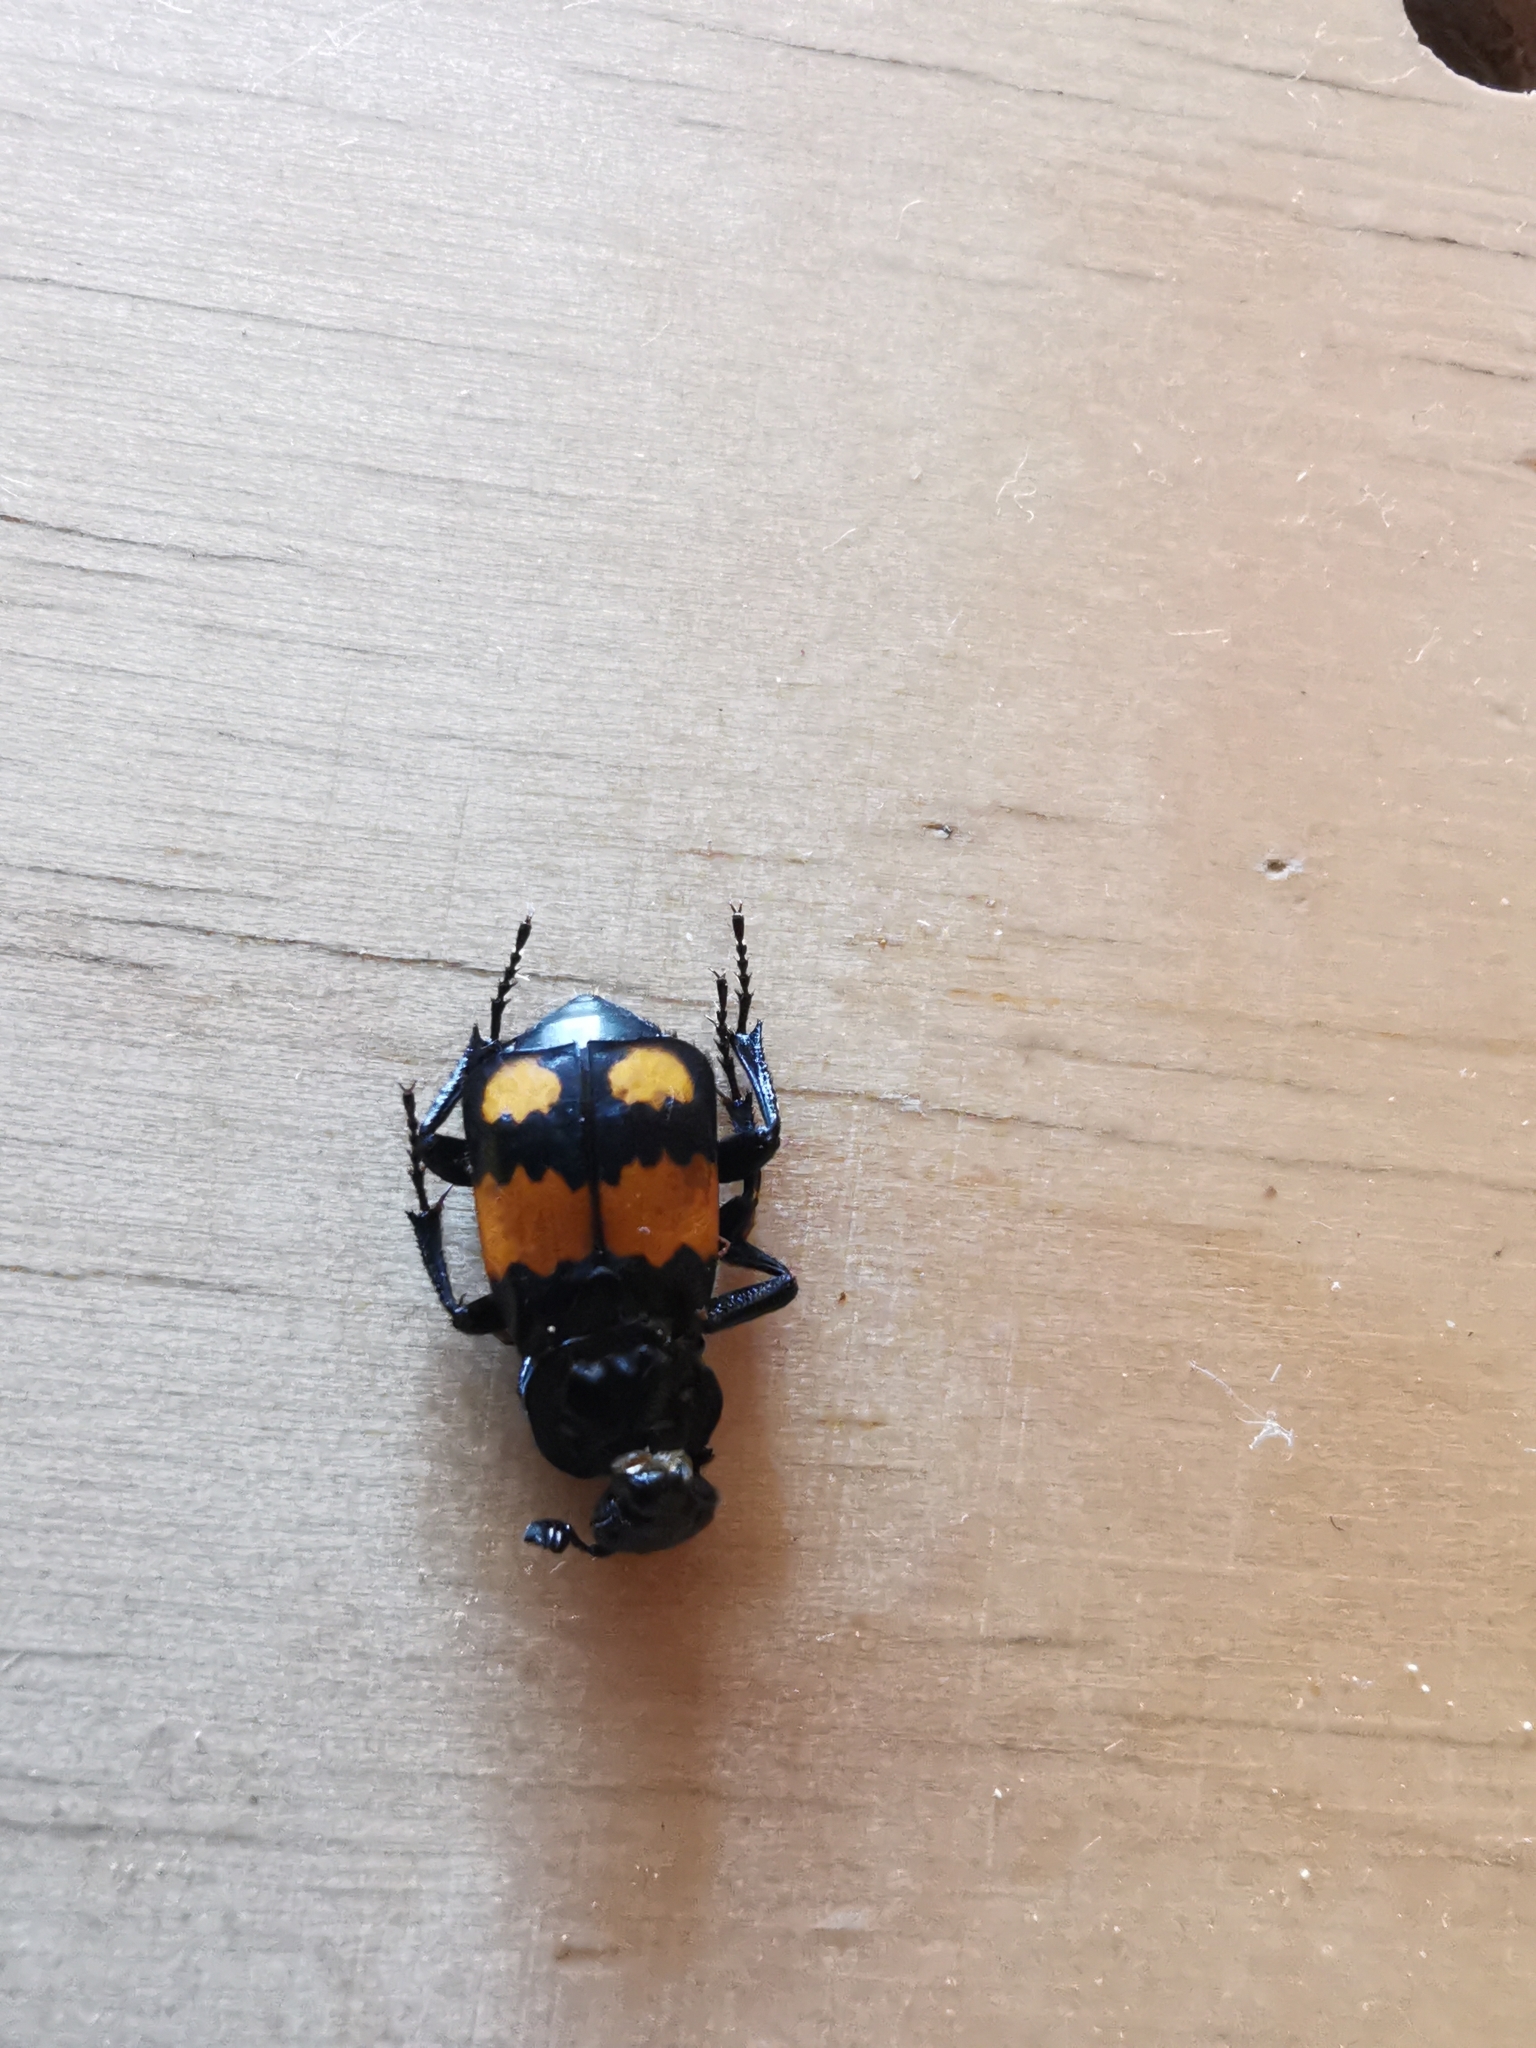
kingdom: Animalia
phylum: Arthropoda
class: Insecta
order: Coleoptera
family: Staphylinidae
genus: Nicrophorus
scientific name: Nicrophorus vespilloides
